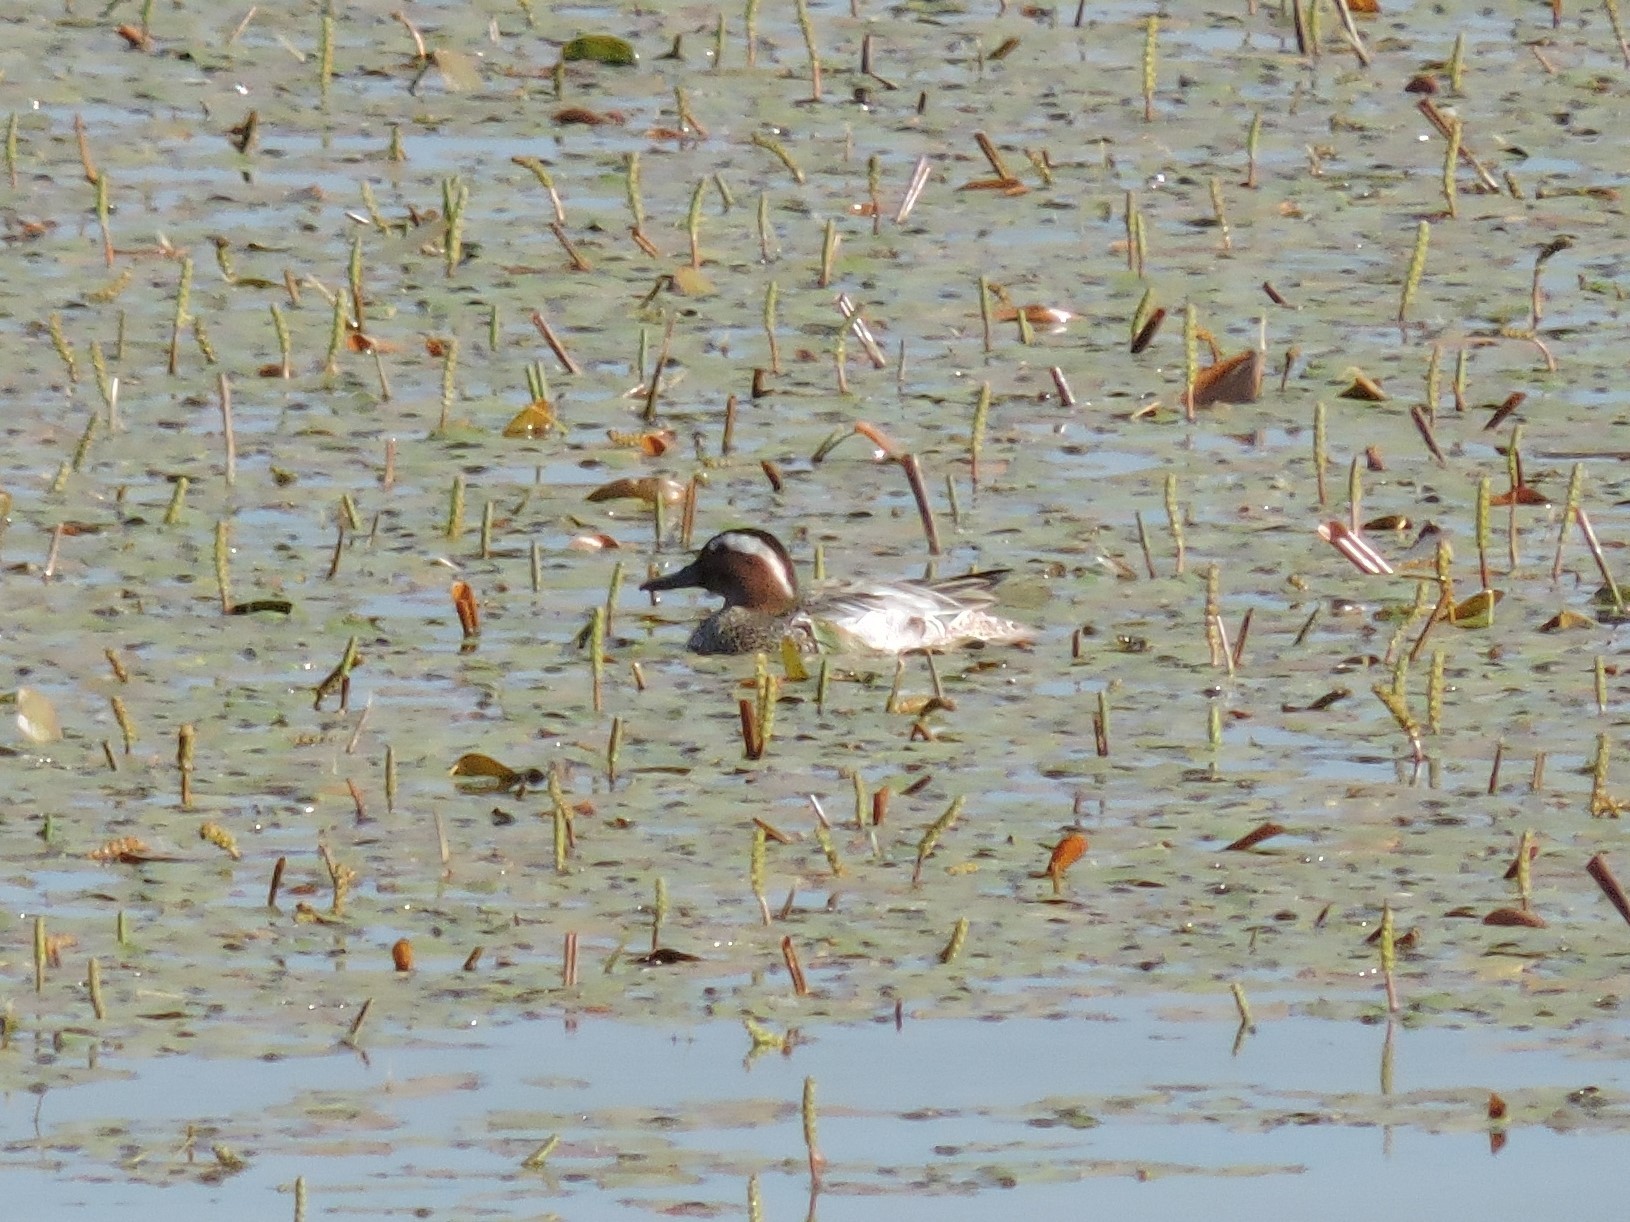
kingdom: Animalia
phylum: Chordata
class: Aves
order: Anseriformes
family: Anatidae
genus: Spatula
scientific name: Spatula querquedula
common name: Garganey
